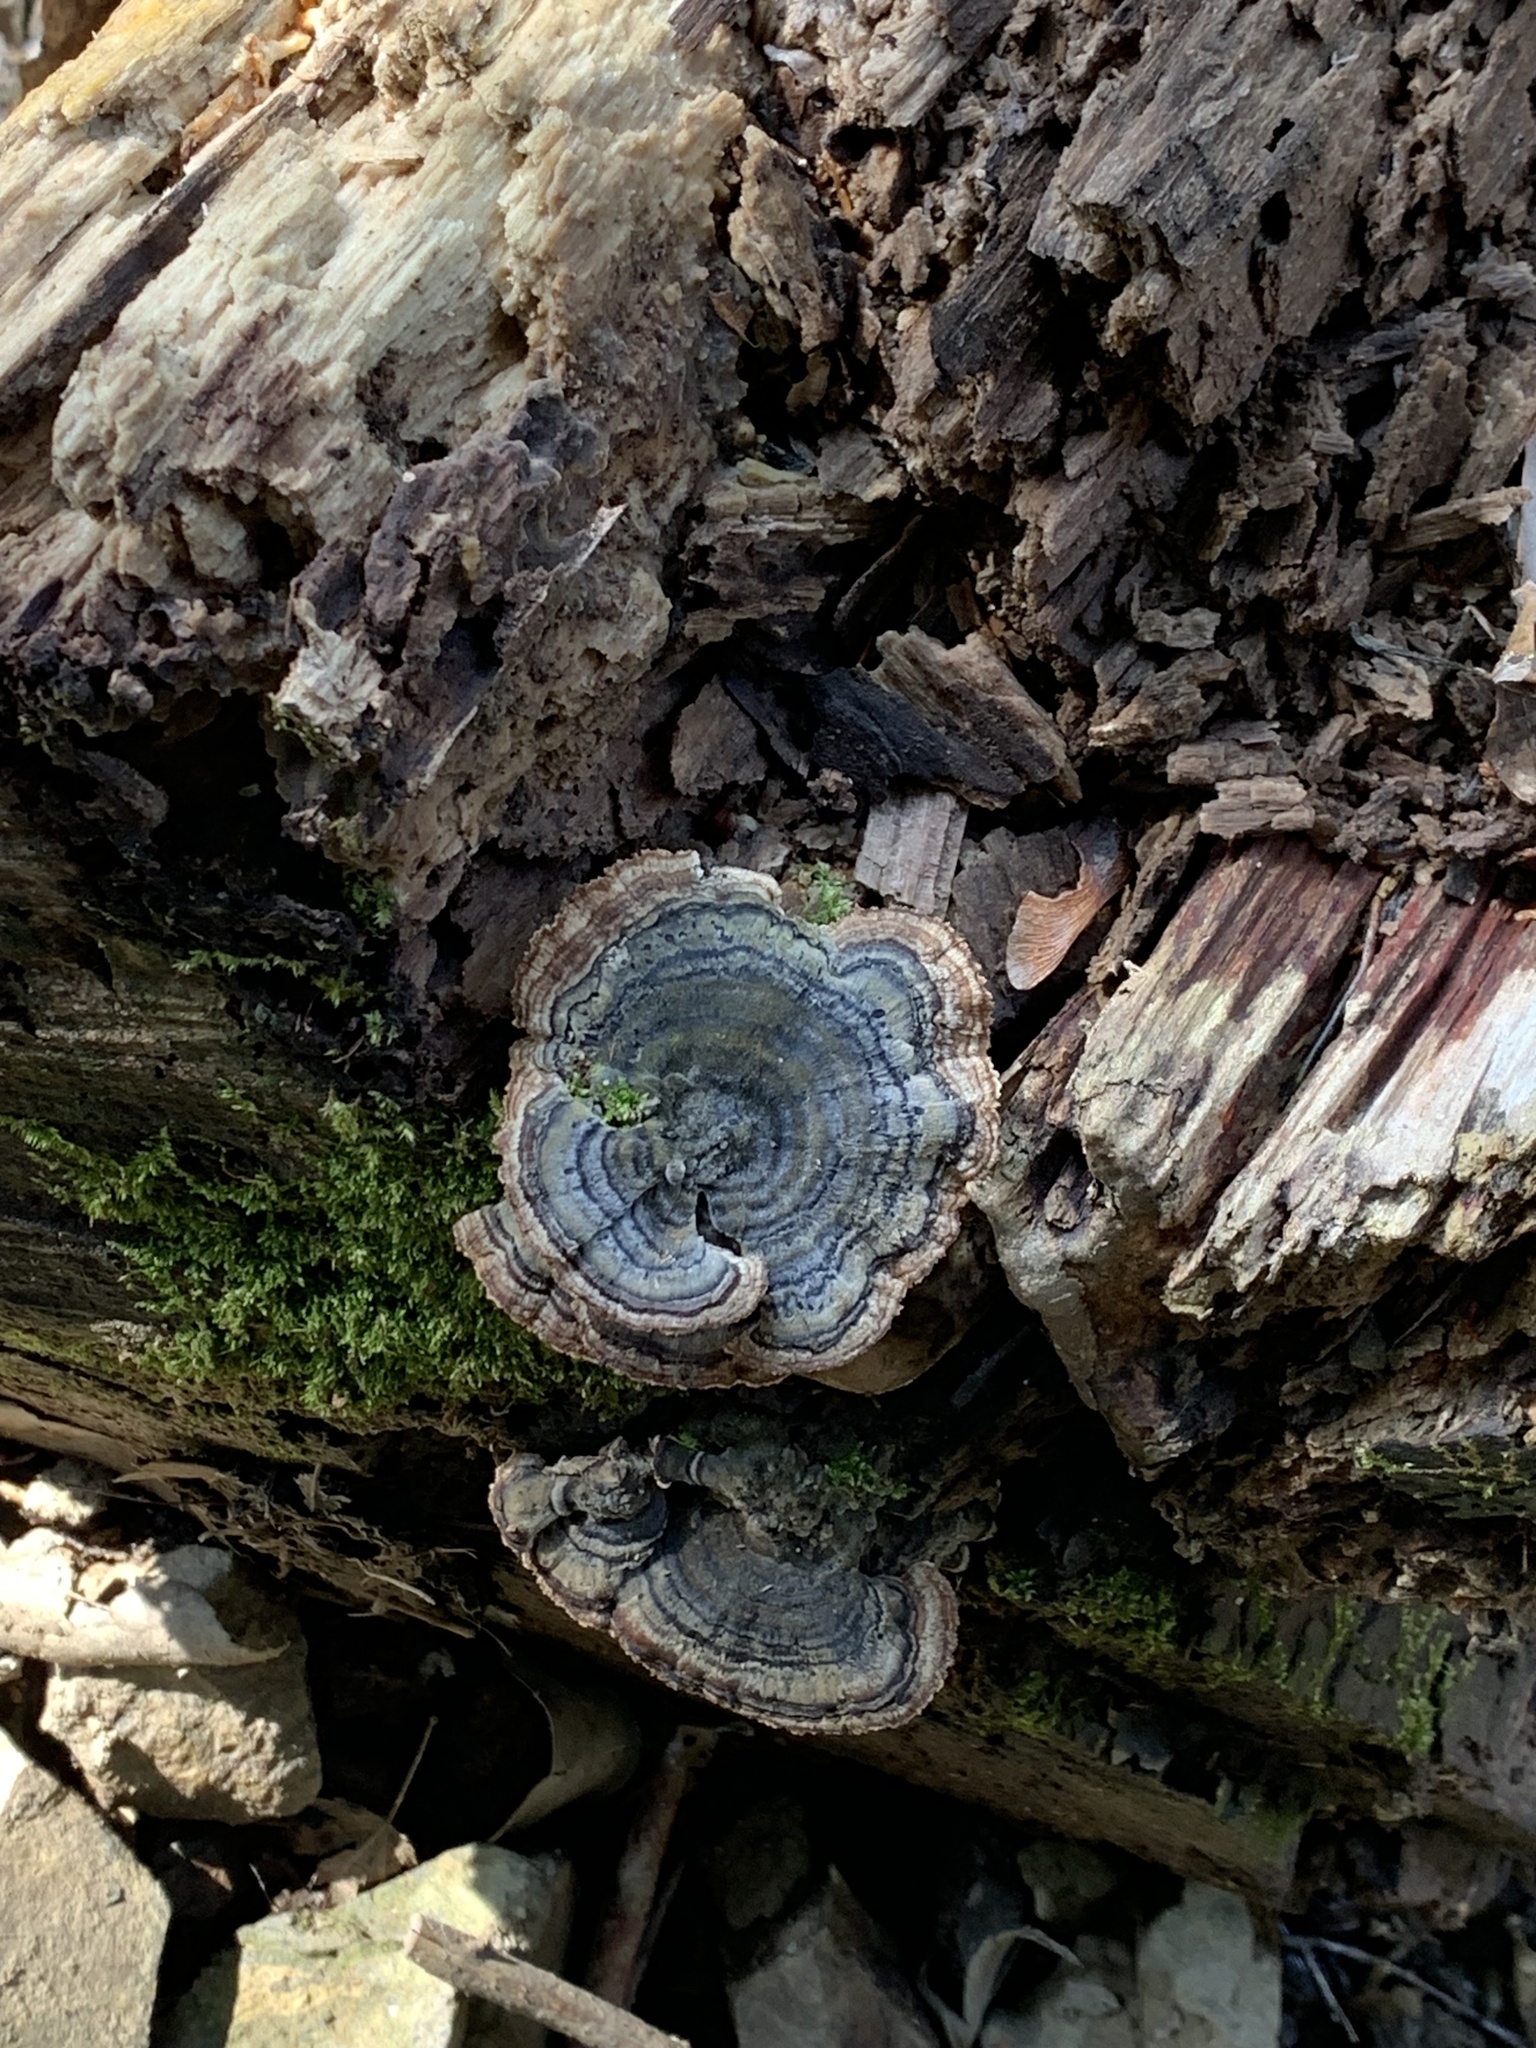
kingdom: Fungi
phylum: Basidiomycota
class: Agaricomycetes
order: Polyporales
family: Polyporaceae
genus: Trametes
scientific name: Trametes versicolor
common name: Turkeytail
